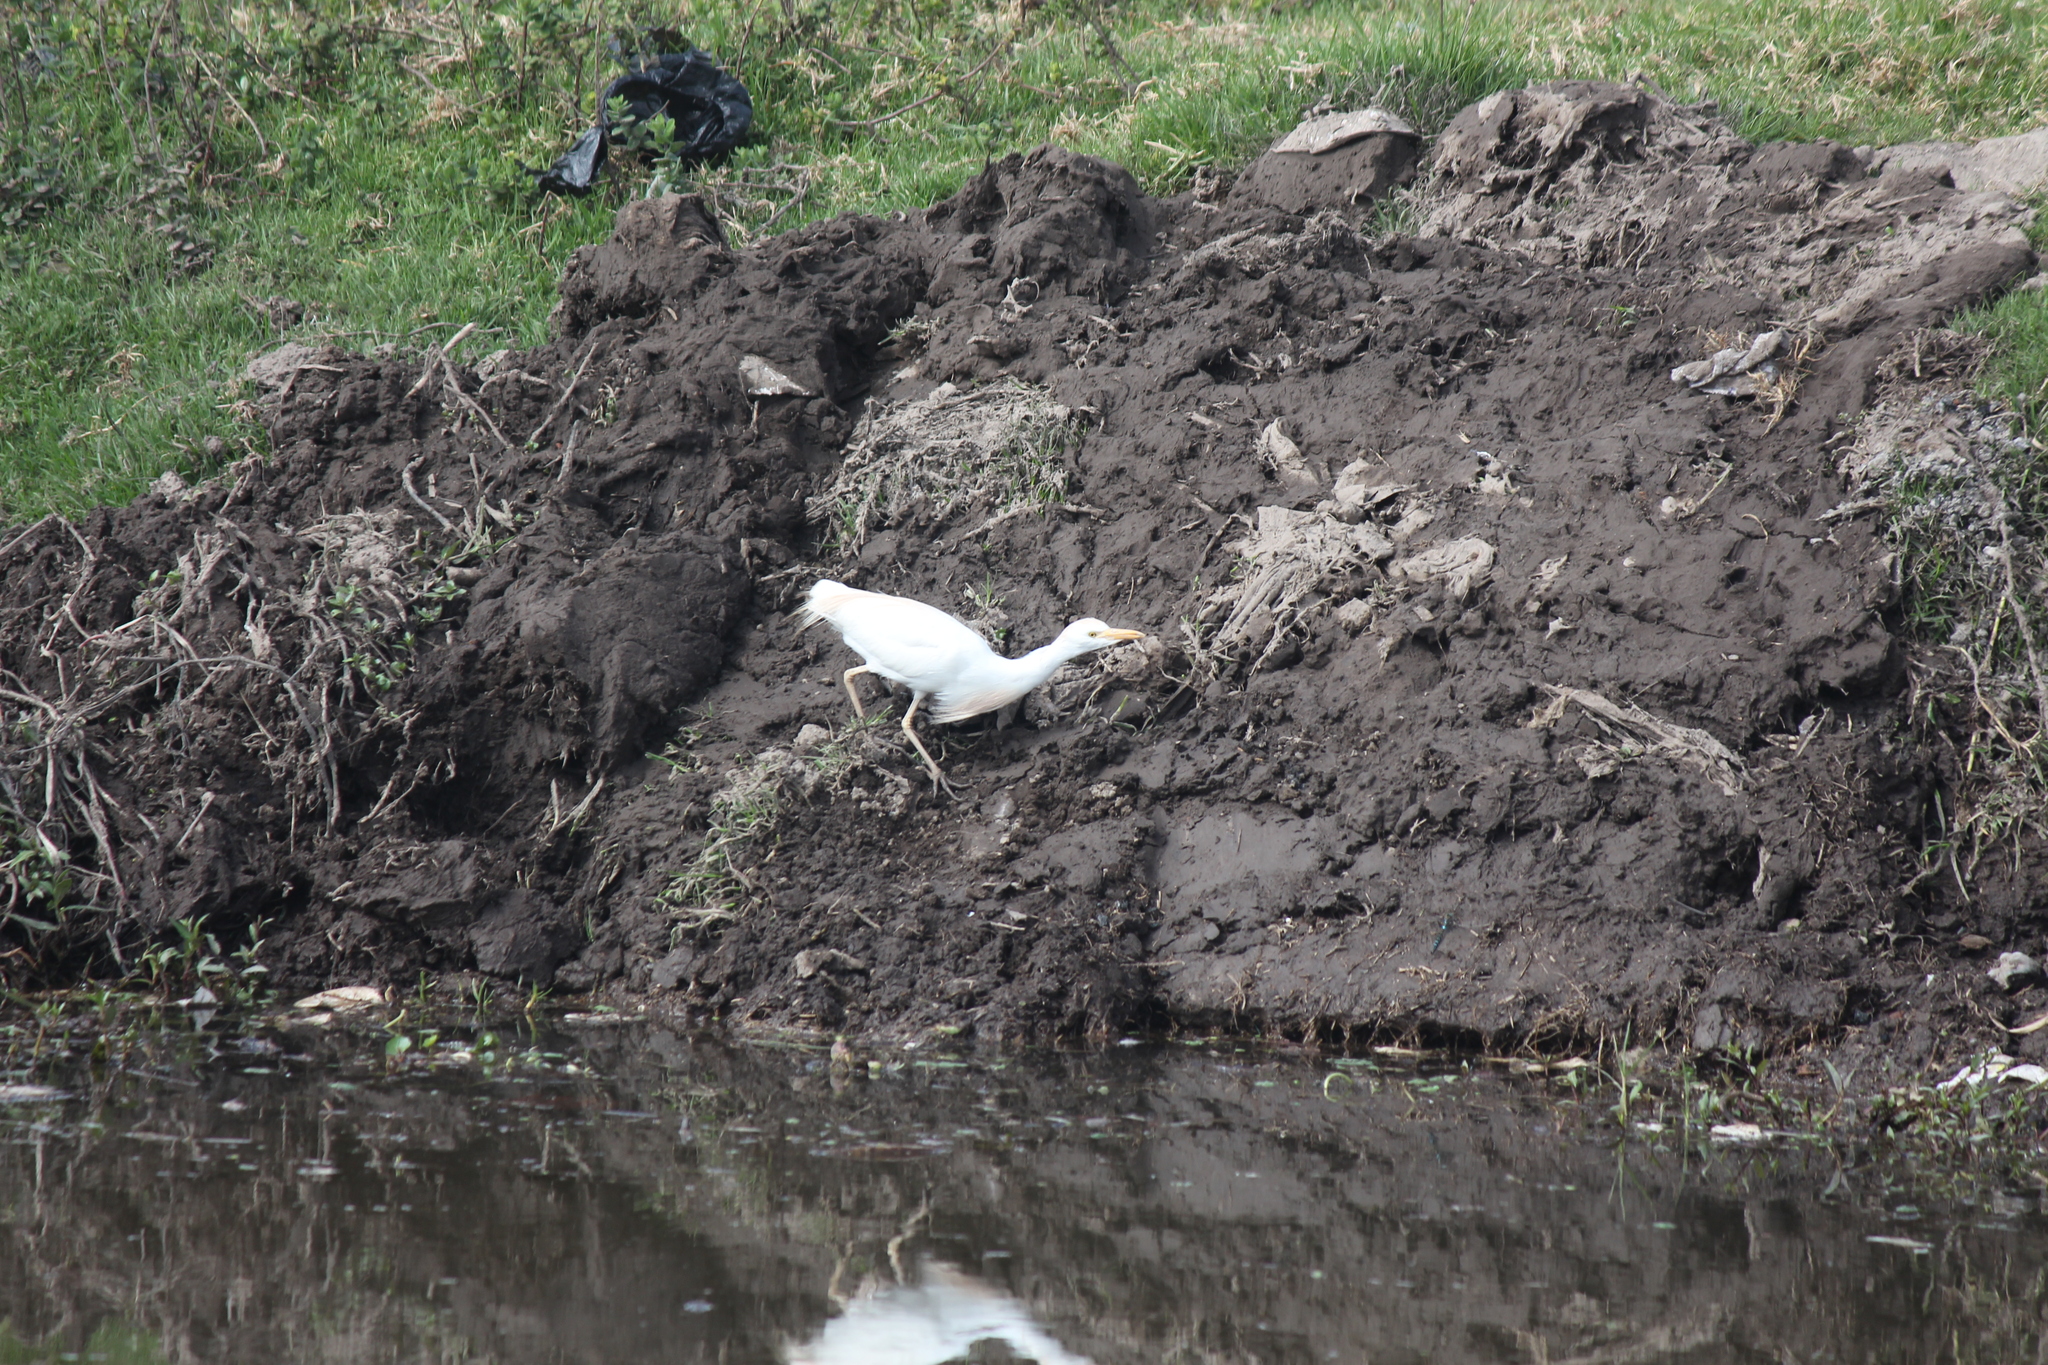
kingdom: Animalia
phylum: Chordata
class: Aves
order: Pelecaniformes
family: Ardeidae
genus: Bubulcus
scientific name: Bubulcus ibis
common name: Cattle egret
